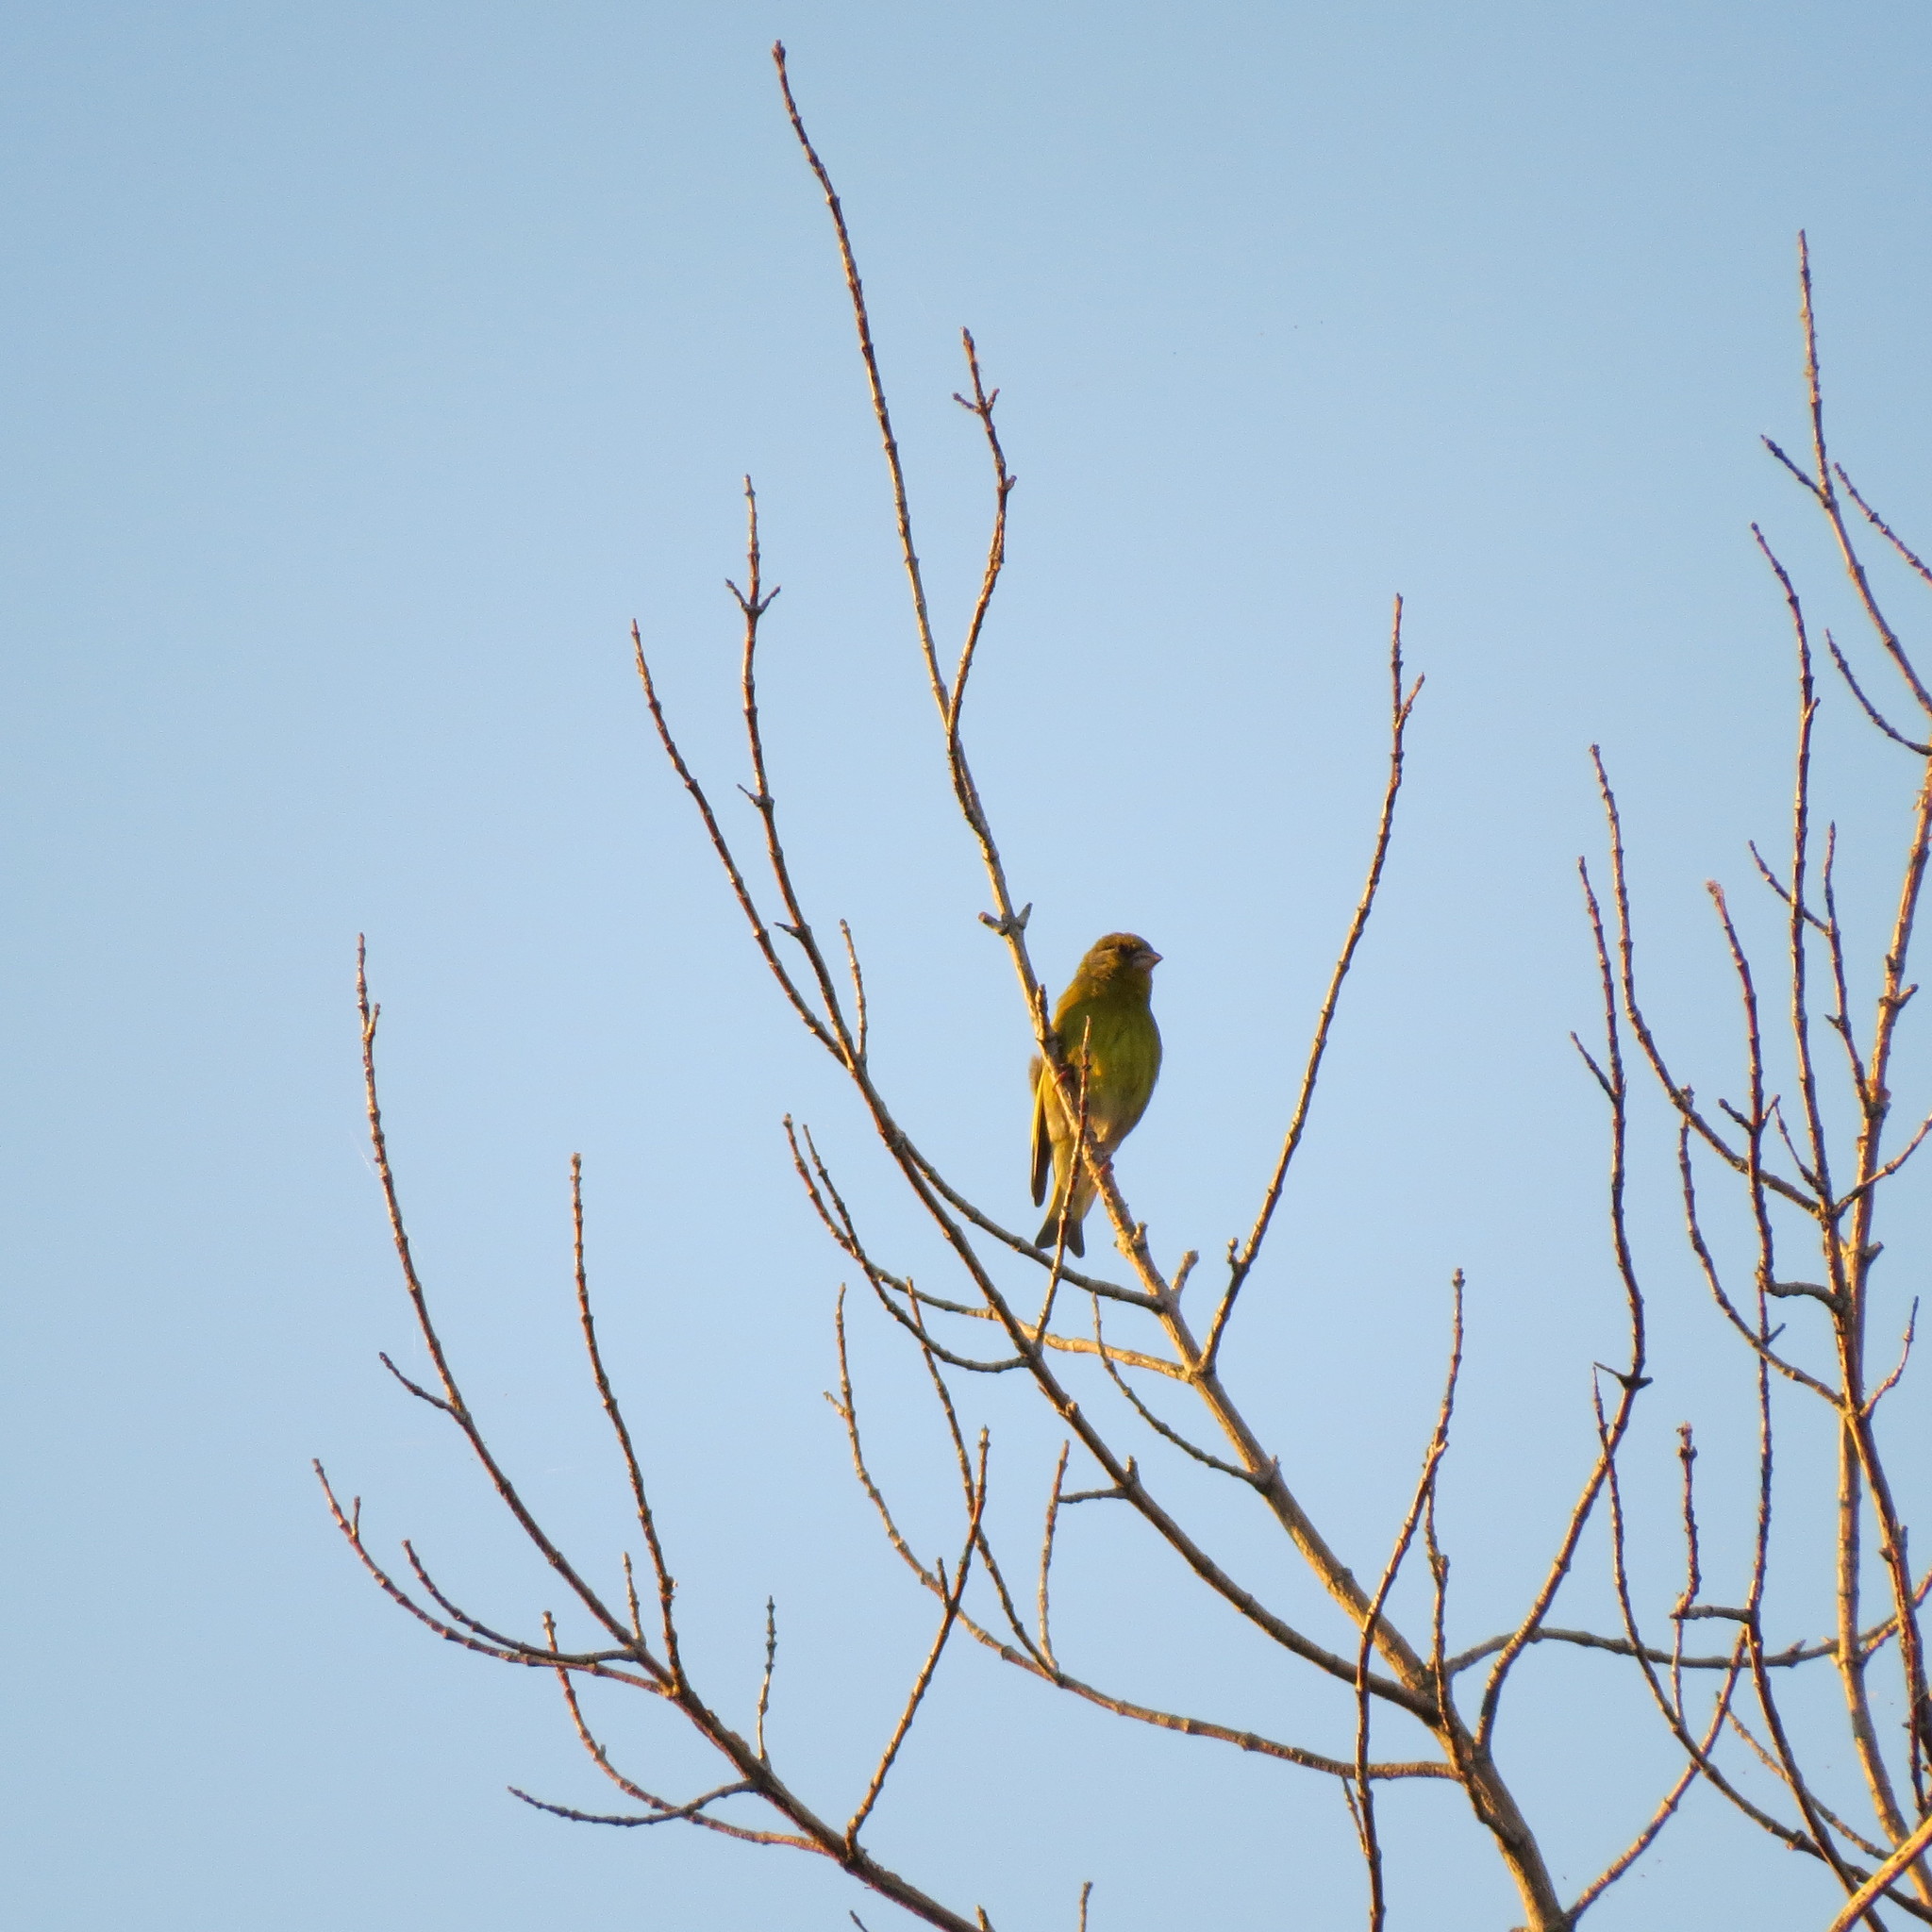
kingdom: Plantae
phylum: Tracheophyta
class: Liliopsida
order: Poales
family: Poaceae
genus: Chloris
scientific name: Chloris chloris
